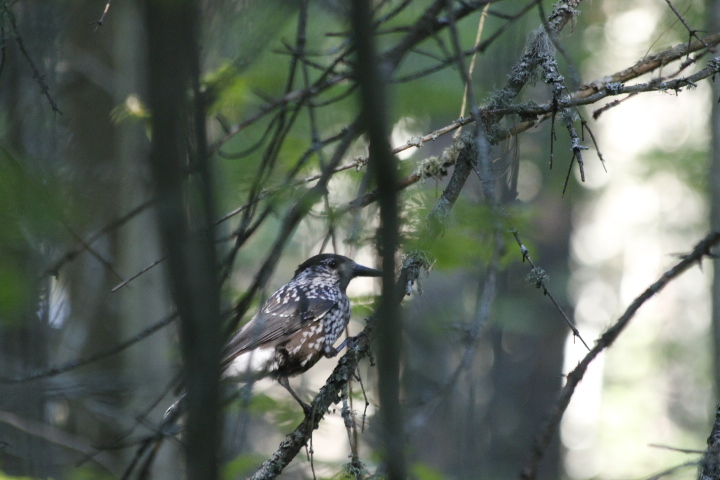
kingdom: Animalia
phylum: Chordata
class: Aves
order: Passeriformes
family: Corvidae
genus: Nucifraga
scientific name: Nucifraga caryocatactes
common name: Spotted nutcracker
